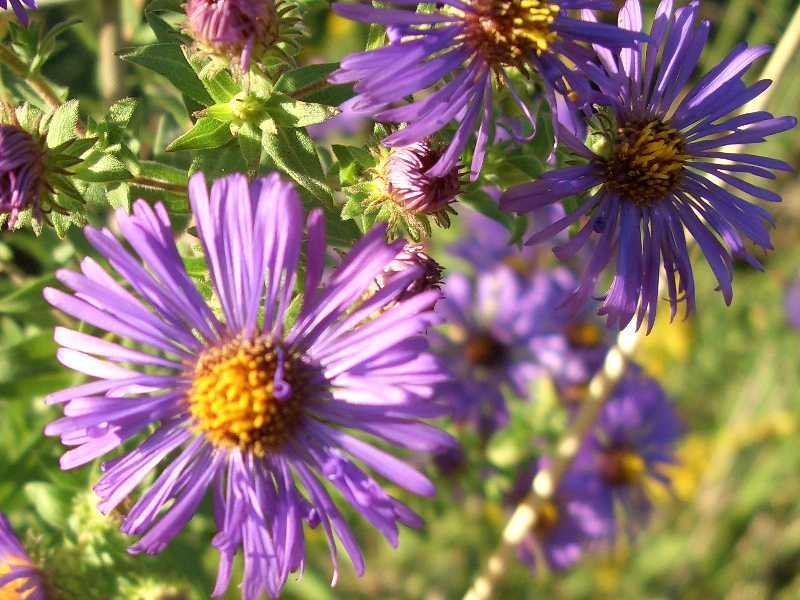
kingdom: Plantae
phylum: Tracheophyta
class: Magnoliopsida
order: Asterales
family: Asteraceae
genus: Symphyotrichum
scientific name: Symphyotrichum novae-angliae
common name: Michaelmas daisy
